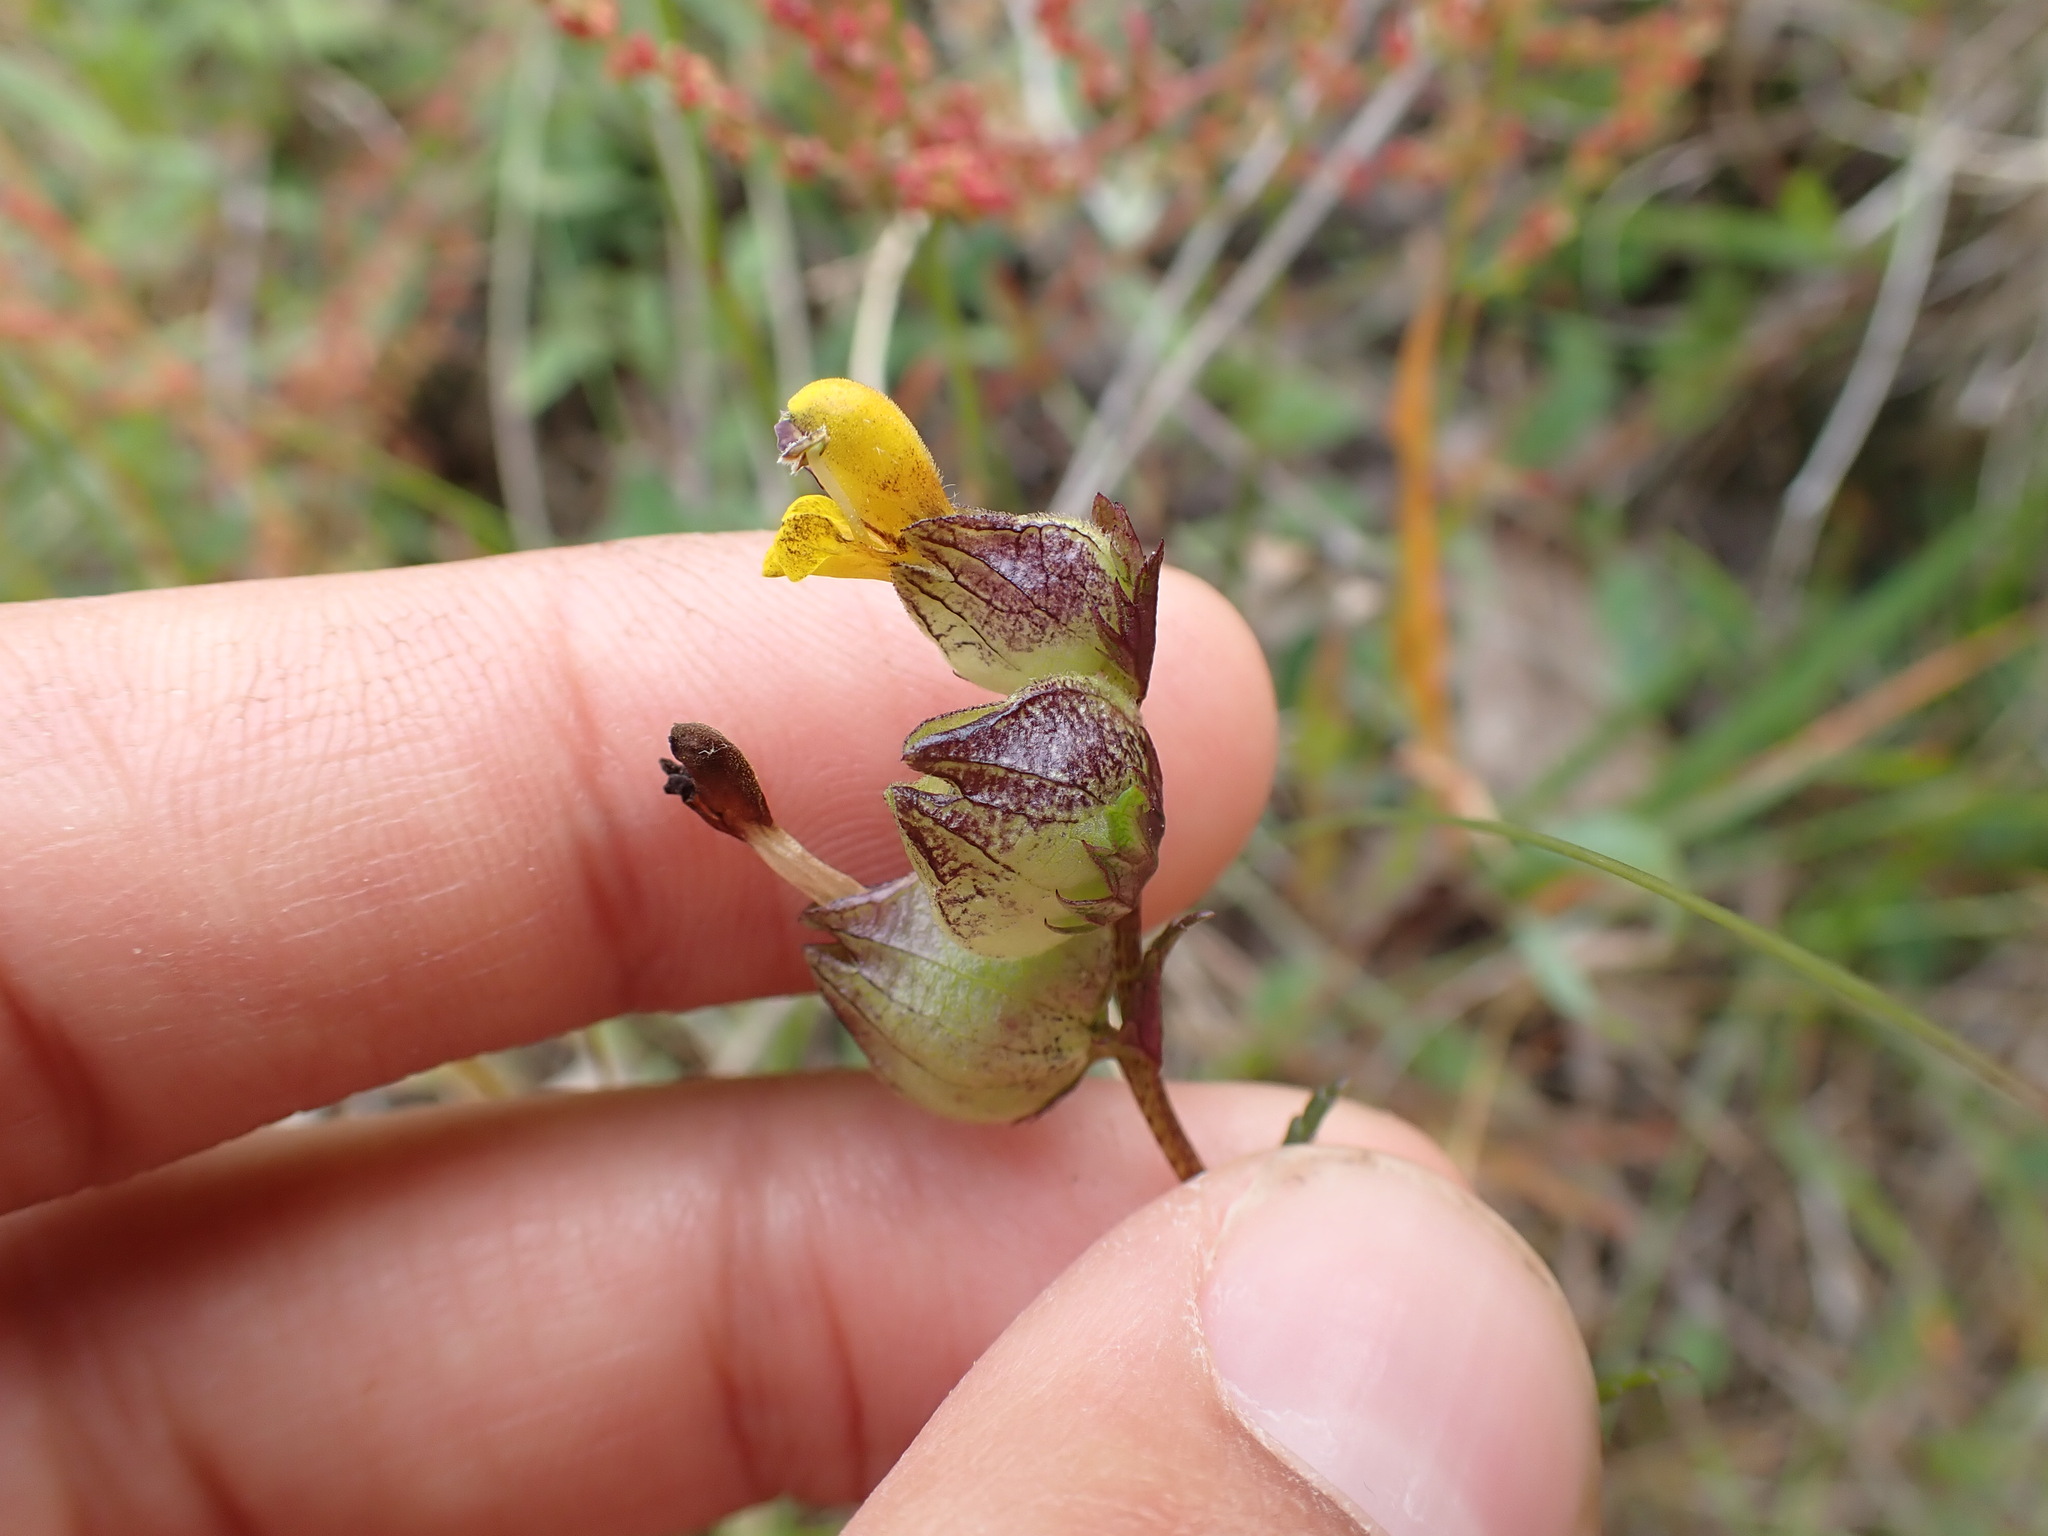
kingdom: Plantae
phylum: Tracheophyta
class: Magnoliopsida
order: Lamiales
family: Orobanchaceae
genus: Rhinanthus
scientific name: Rhinanthus minor
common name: Yellow-rattle
